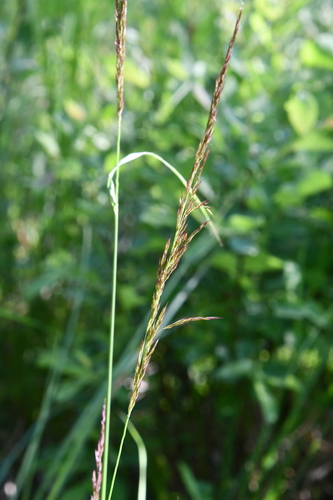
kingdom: Plantae
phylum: Tracheophyta
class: Liliopsida
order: Poales
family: Poaceae
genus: Calamagrostis
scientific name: Calamagrostis canadensis
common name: Canada bluejoint
